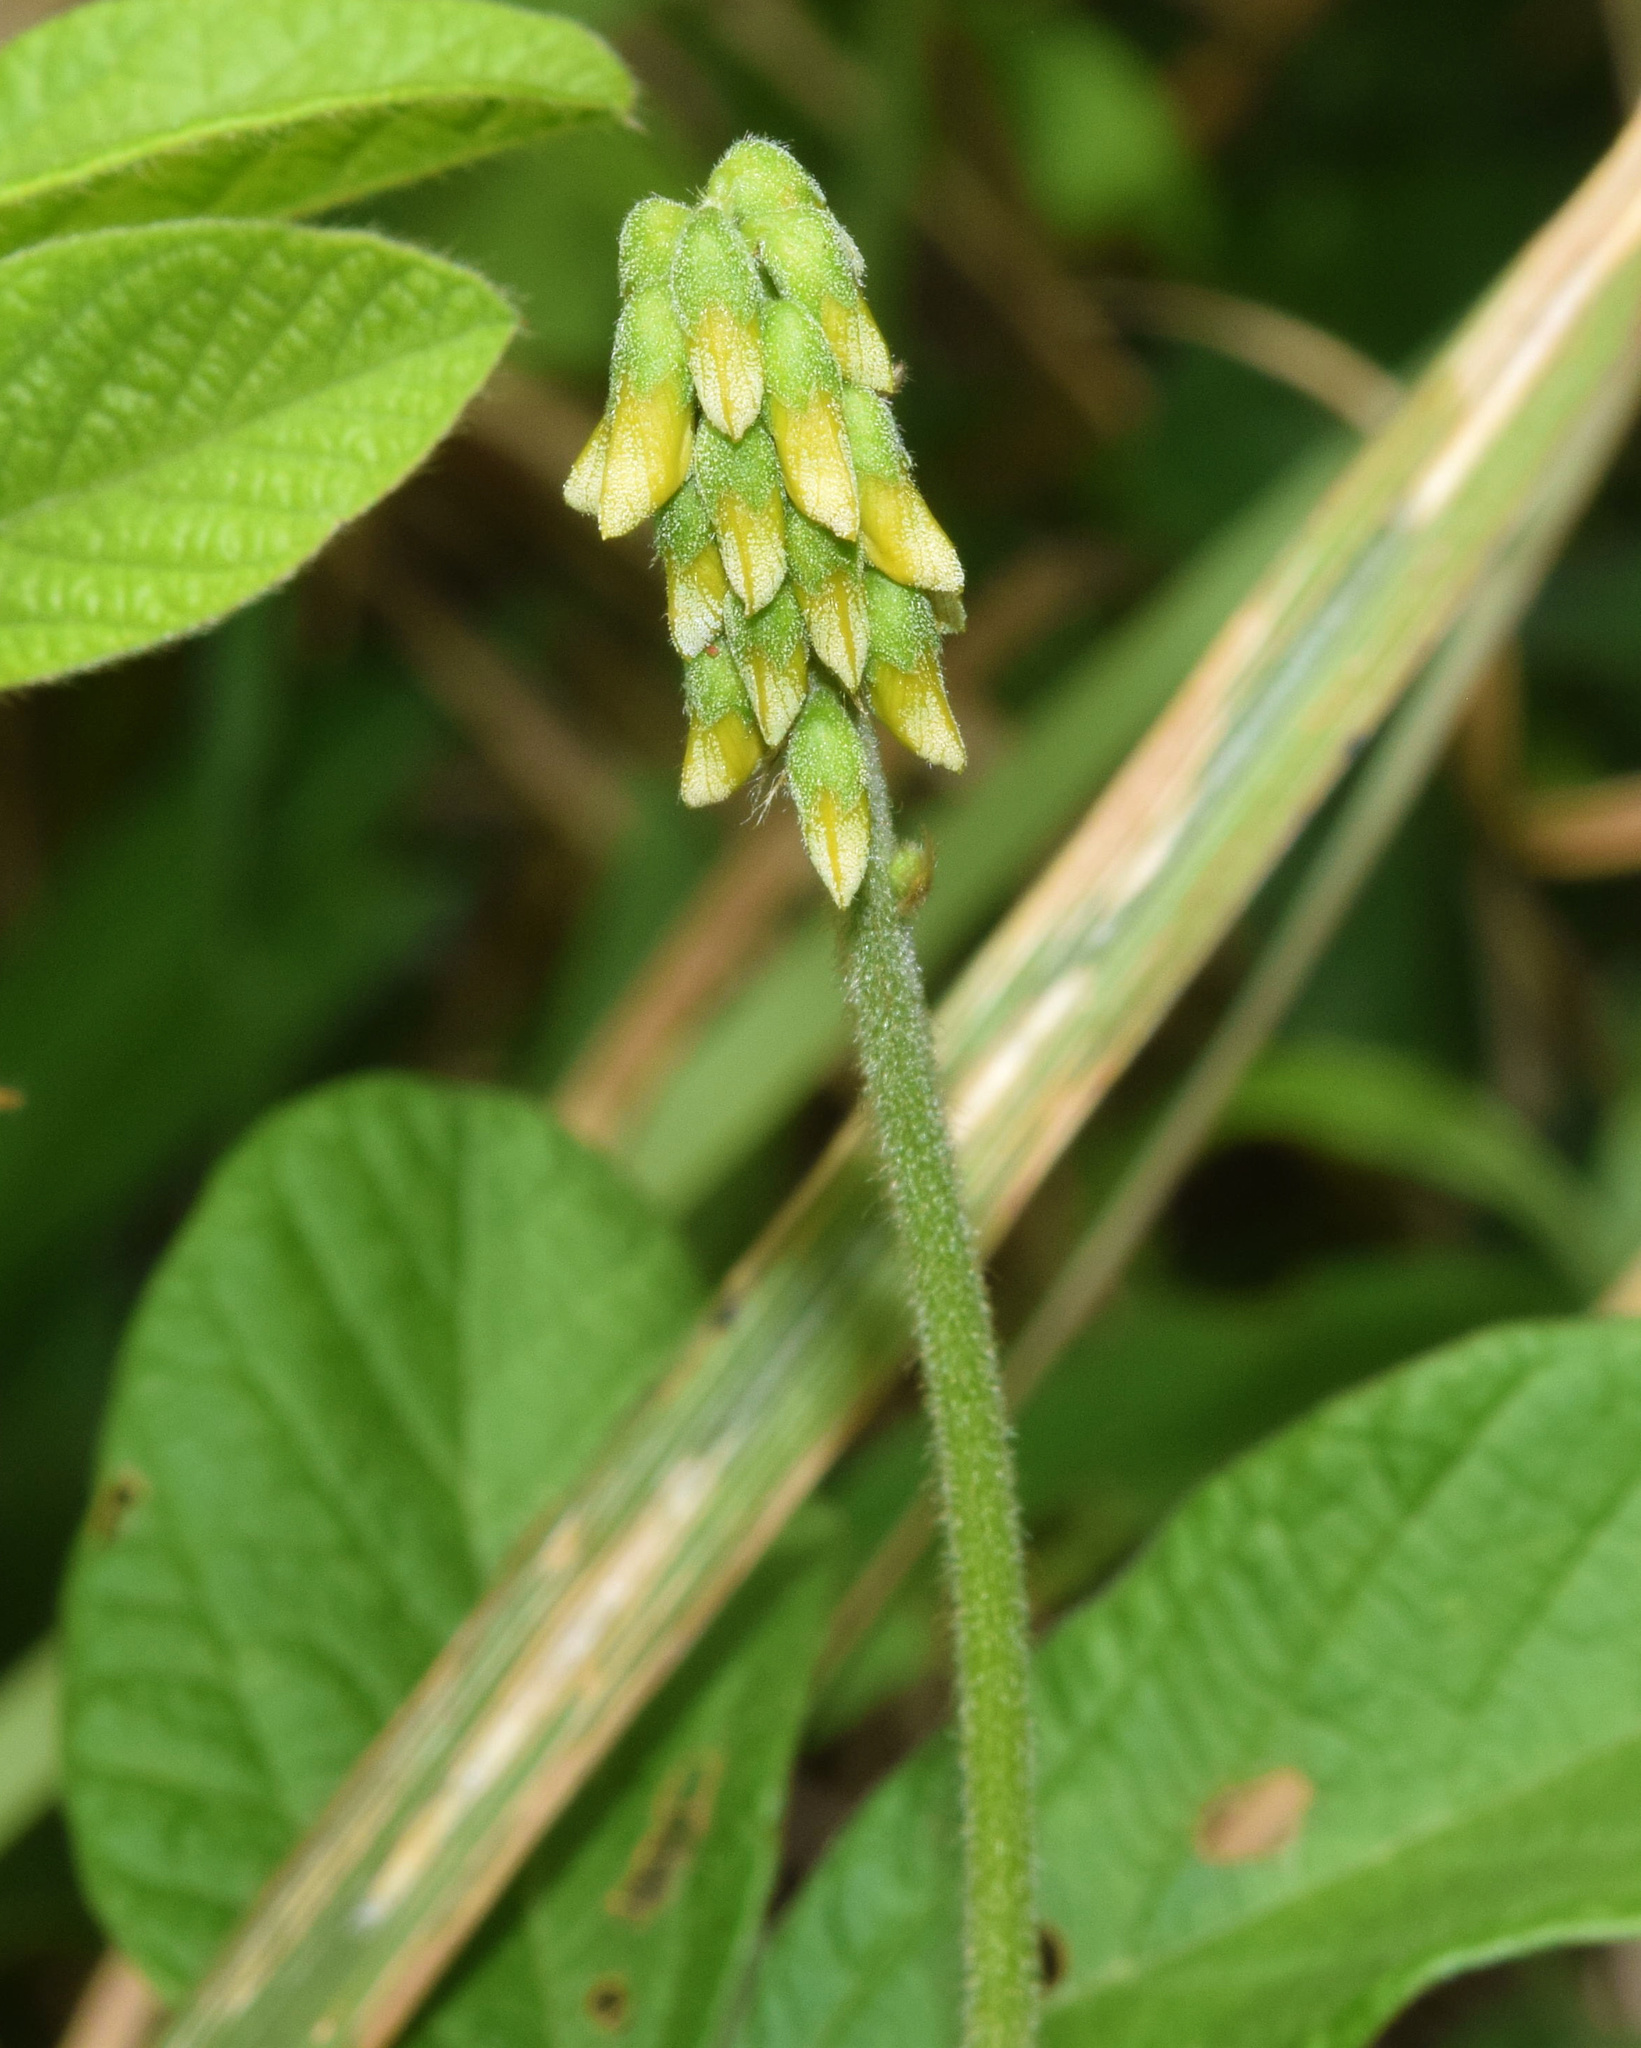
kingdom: Plantae
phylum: Tracheophyta
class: Magnoliopsida
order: Fabales
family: Fabaceae
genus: Eriosema
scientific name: Eriosema salignum
